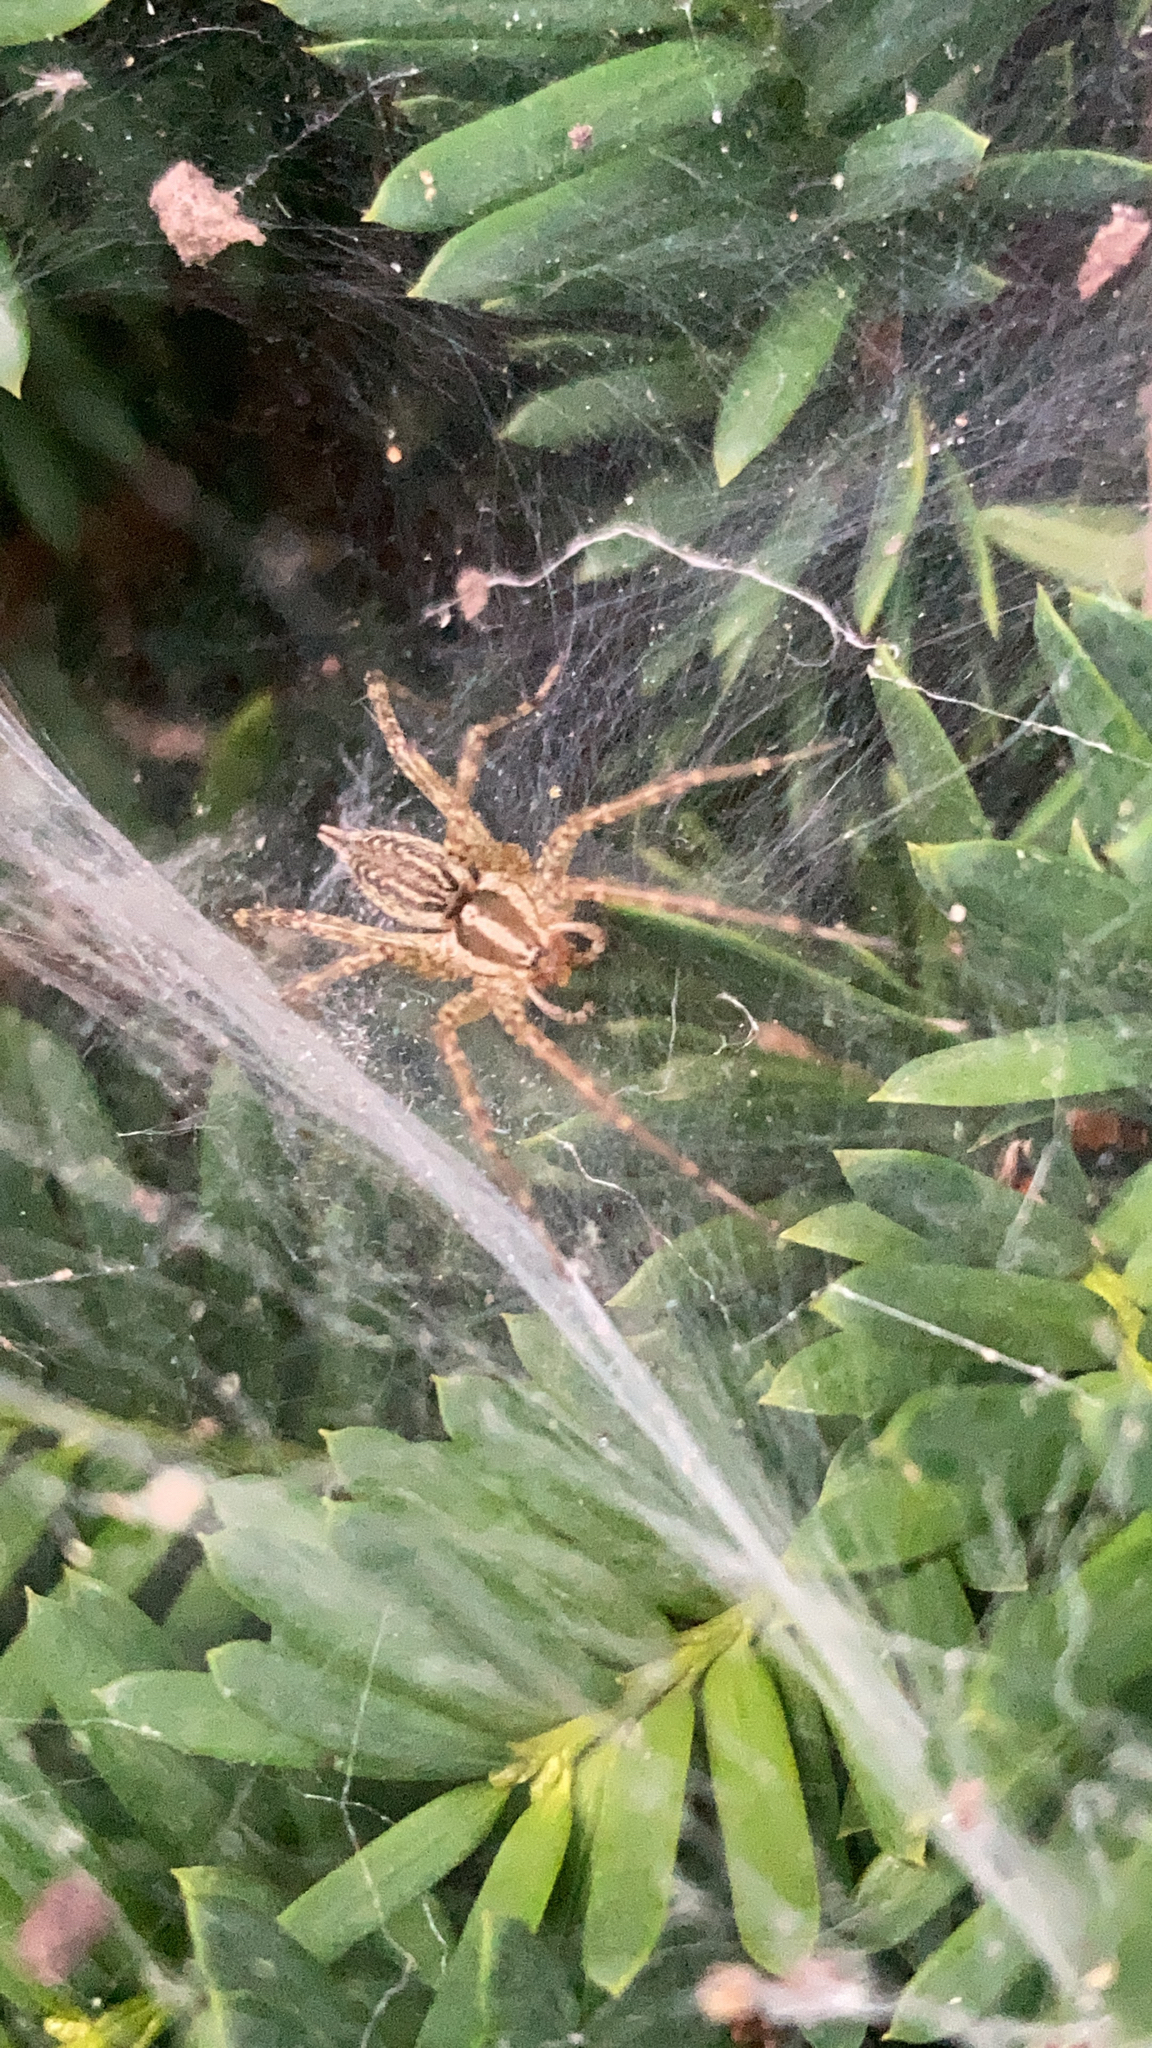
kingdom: Animalia
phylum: Arthropoda
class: Arachnida
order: Araneae
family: Agelenidae
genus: Agelenopsis
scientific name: Agelenopsis
